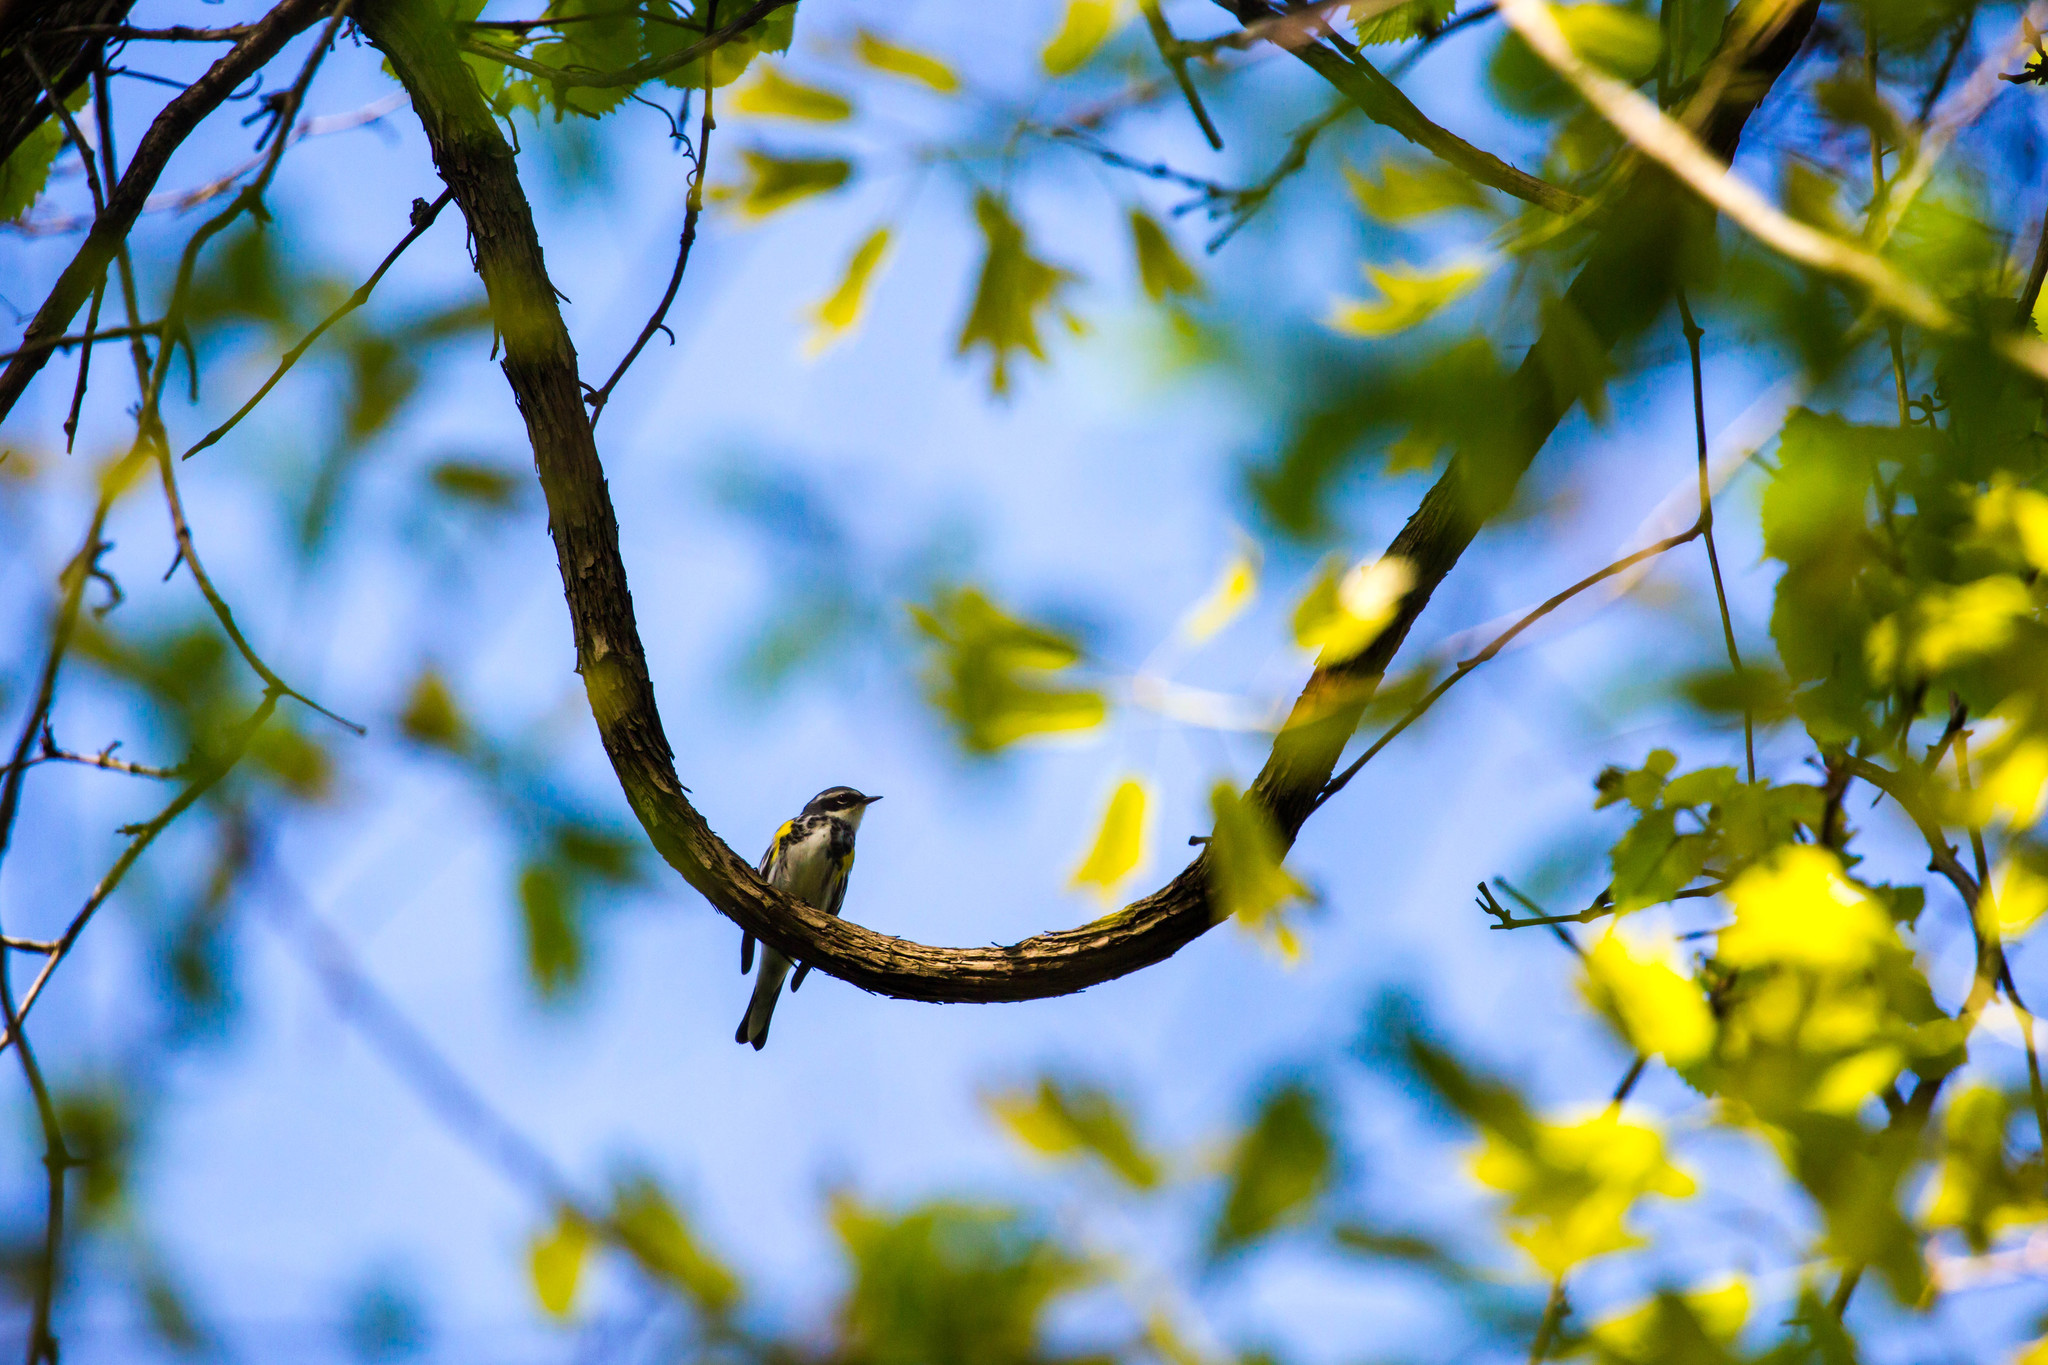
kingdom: Animalia
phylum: Chordata
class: Aves
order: Passeriformes
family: Parulidae
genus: Setophaga
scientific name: Setophaga coronata
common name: Myrtle warbler
